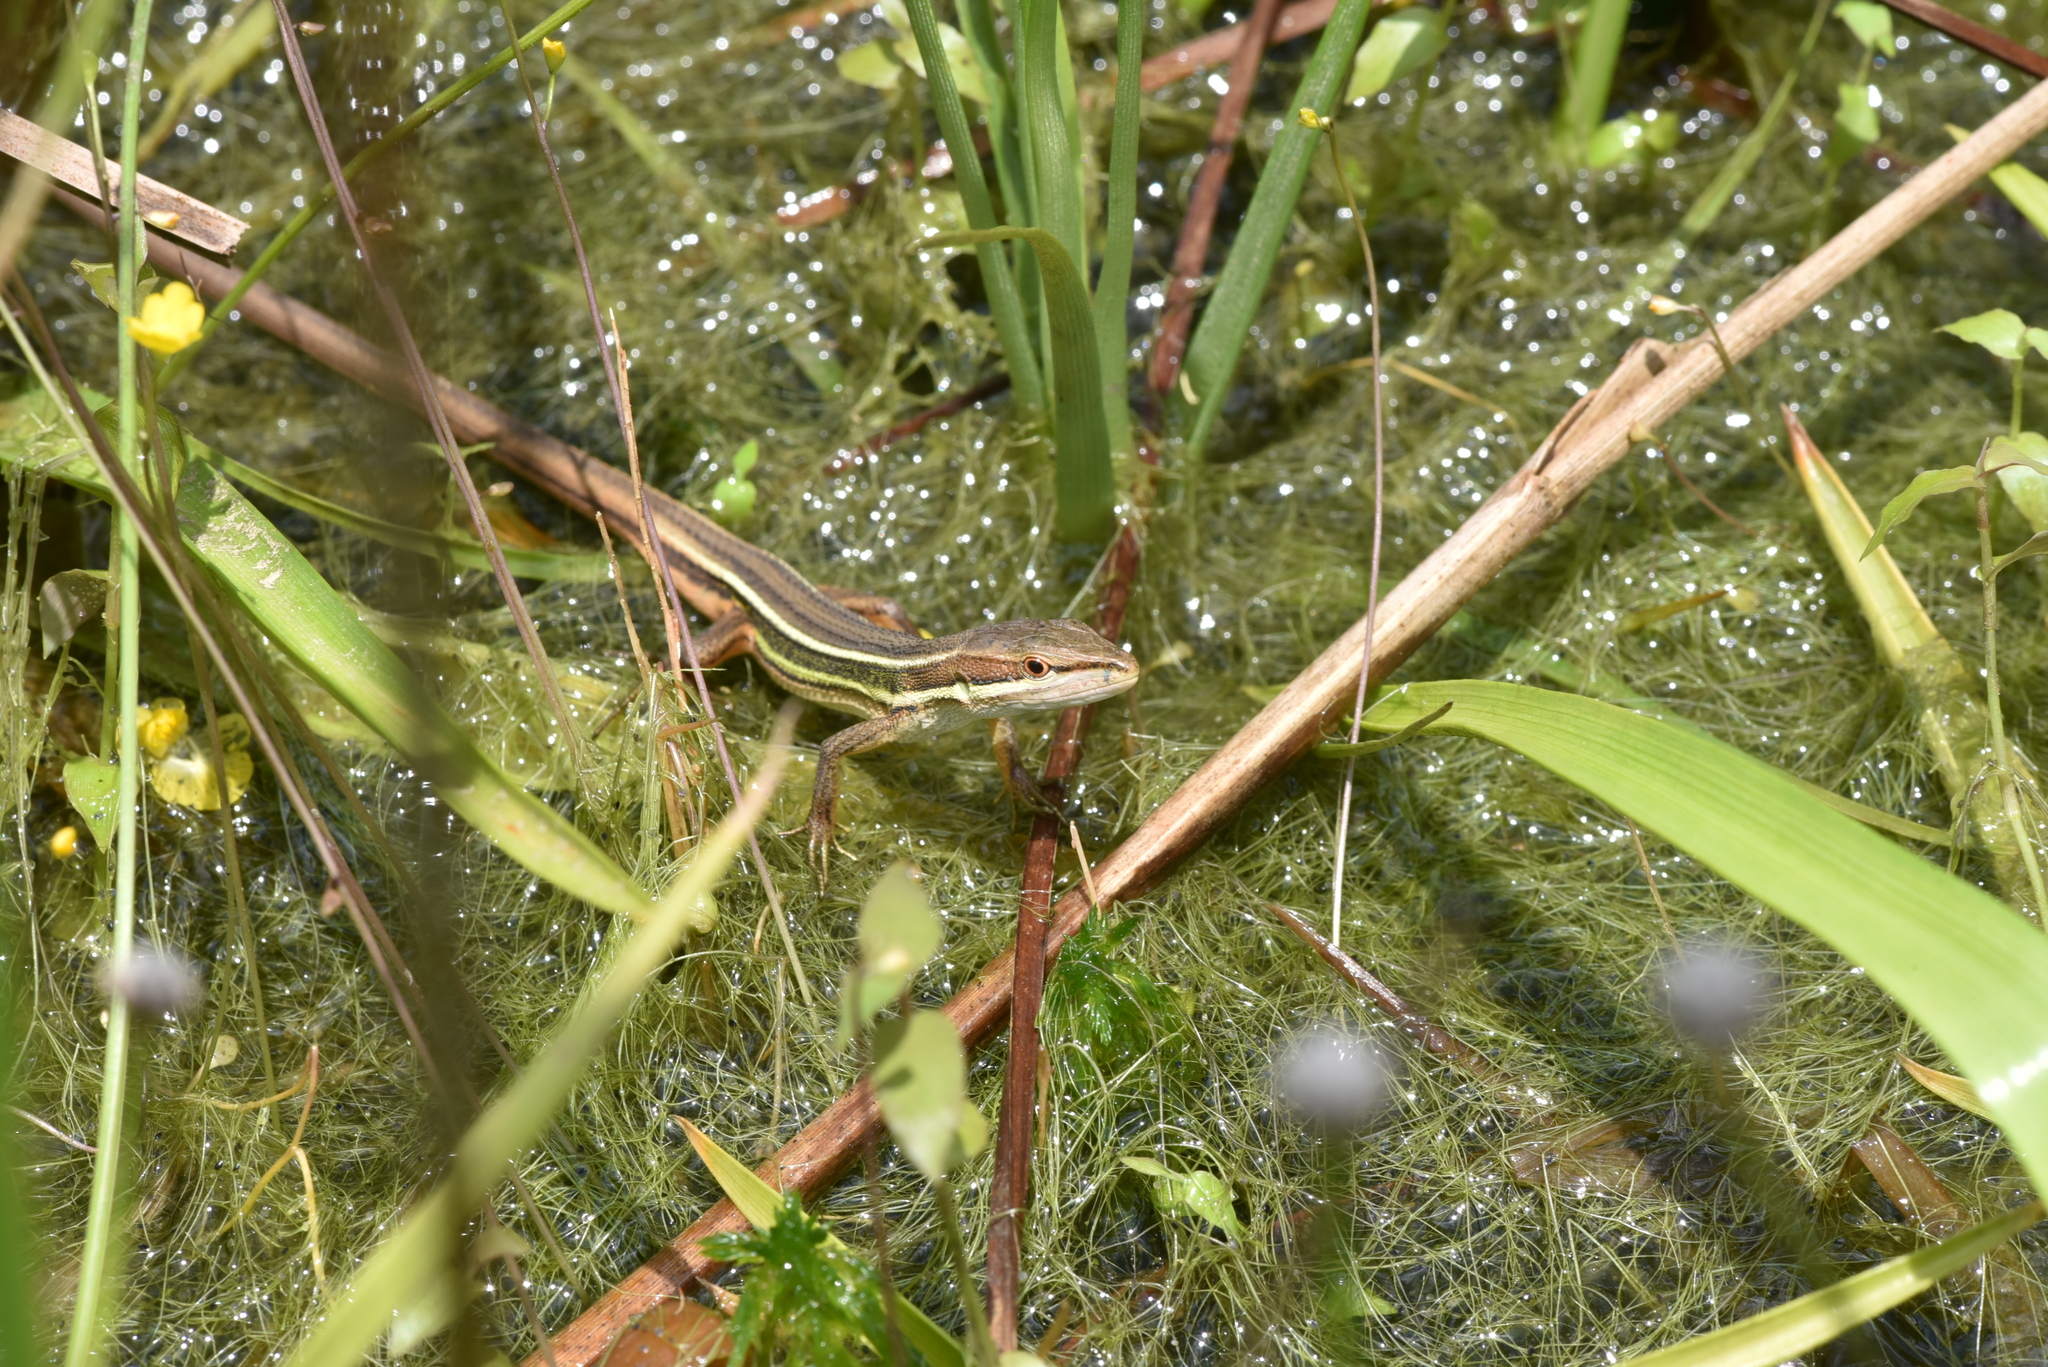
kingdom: Animalia
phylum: Chordata
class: Squamata
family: Lacertidae
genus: Takydromus
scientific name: Takydromus viridipunctatus
